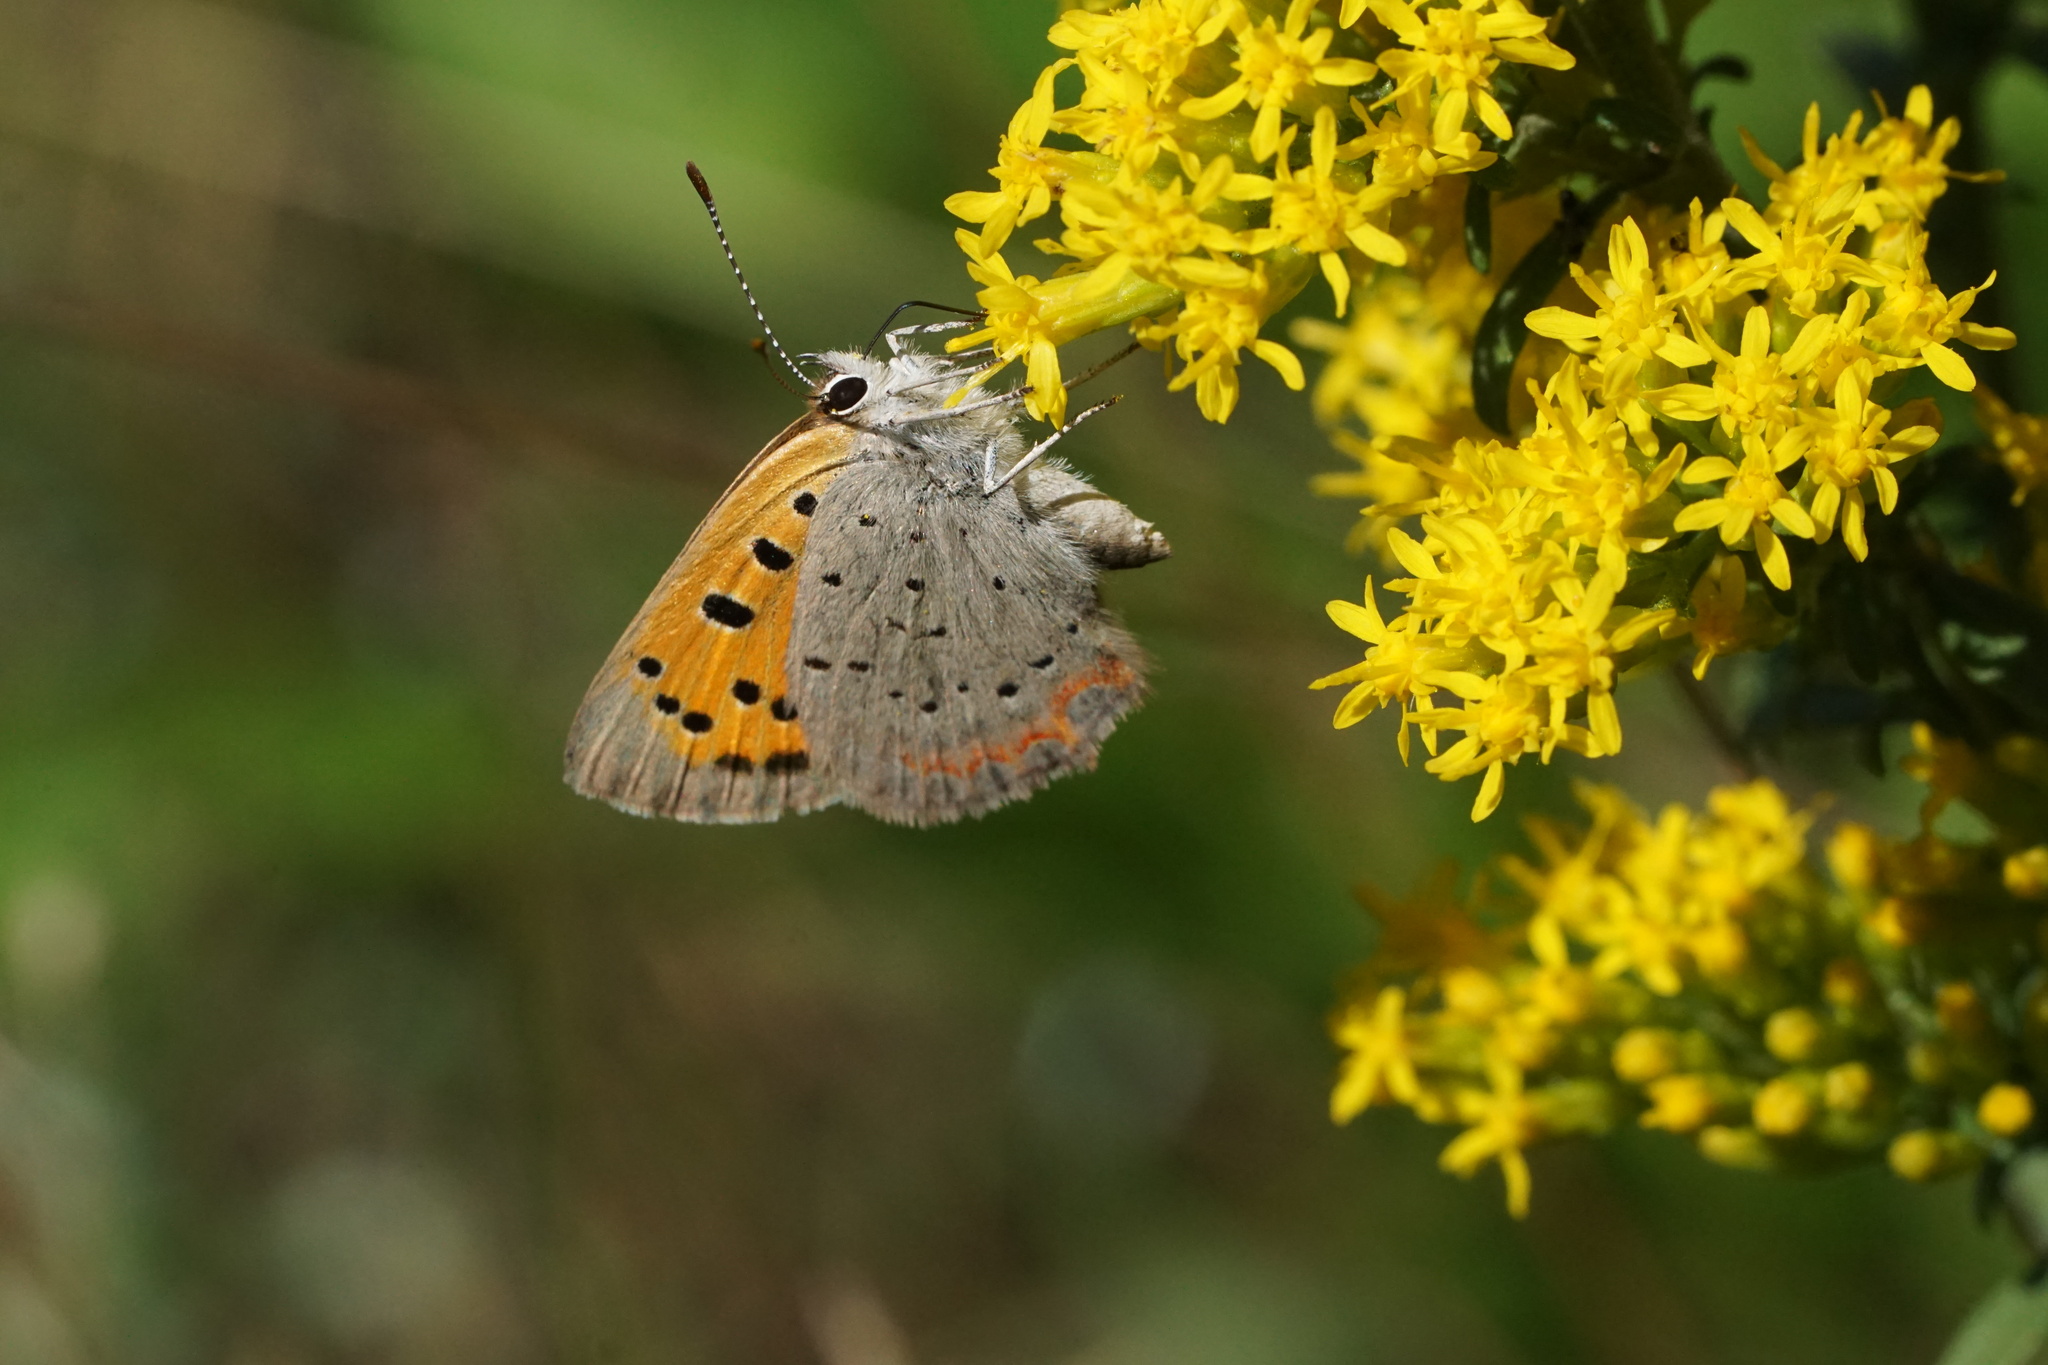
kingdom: Animalia
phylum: Arthropoda
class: Insecta
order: Lepidoptera
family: Lycaenidae
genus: Lycaena
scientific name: Lycaena hypophlaeas
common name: American copper
